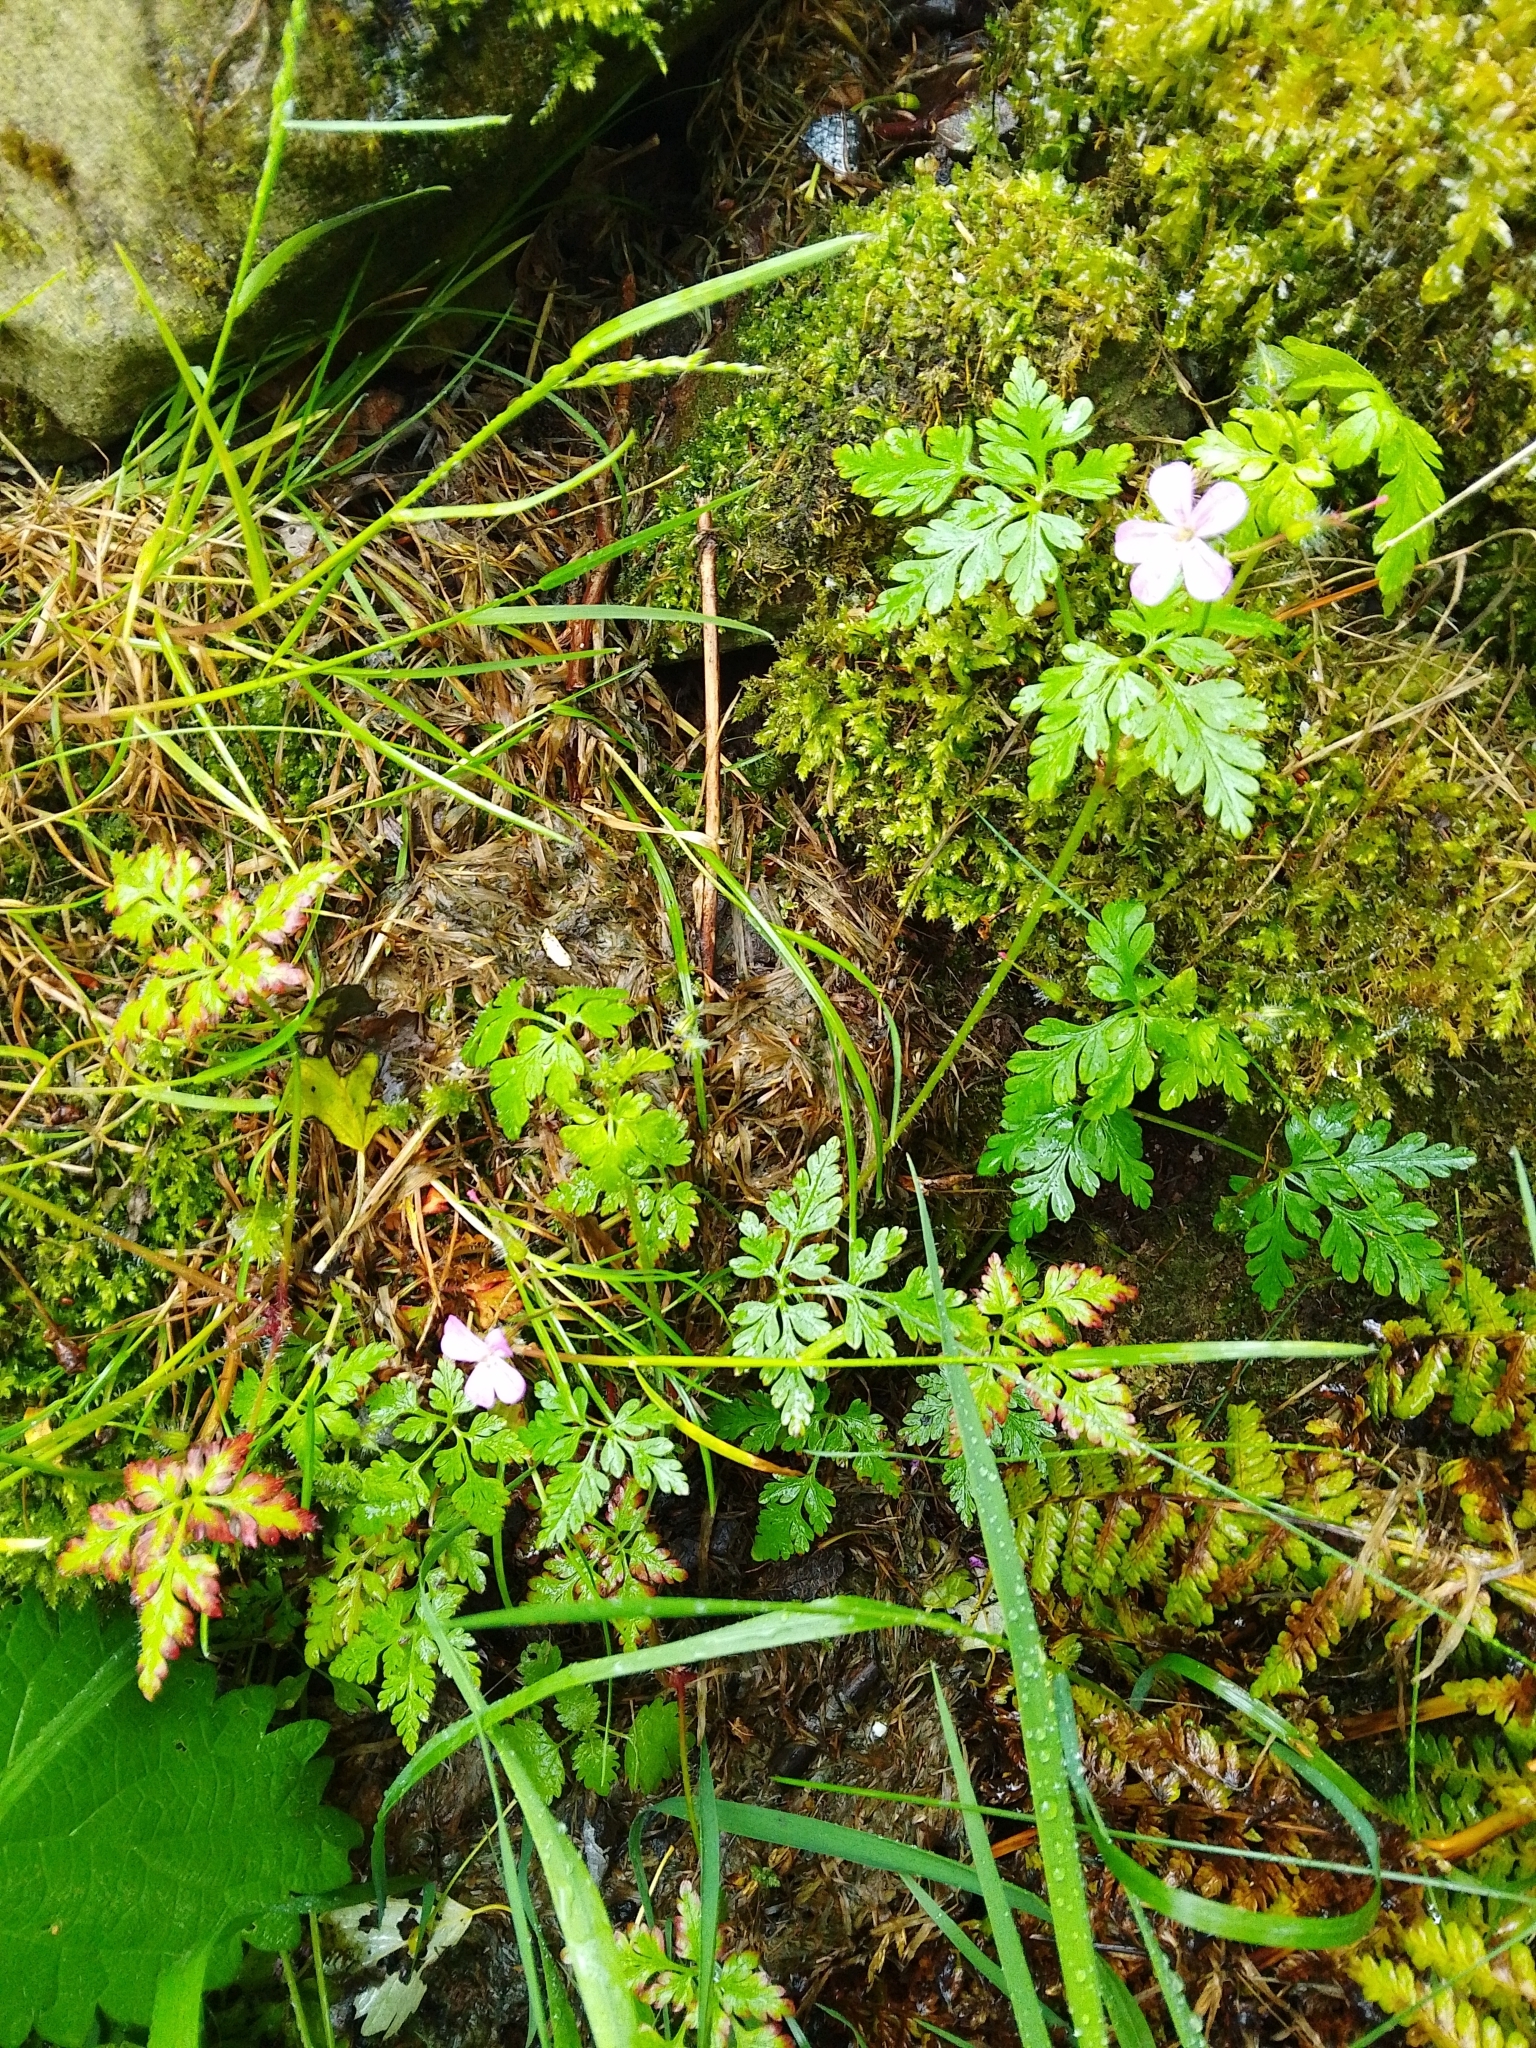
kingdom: Plantae
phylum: Tracheophyta
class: Magnoliopsida
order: Geraniales
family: Geraniaceae
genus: Geranium
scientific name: Geranium robertianum
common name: Herb-robert
